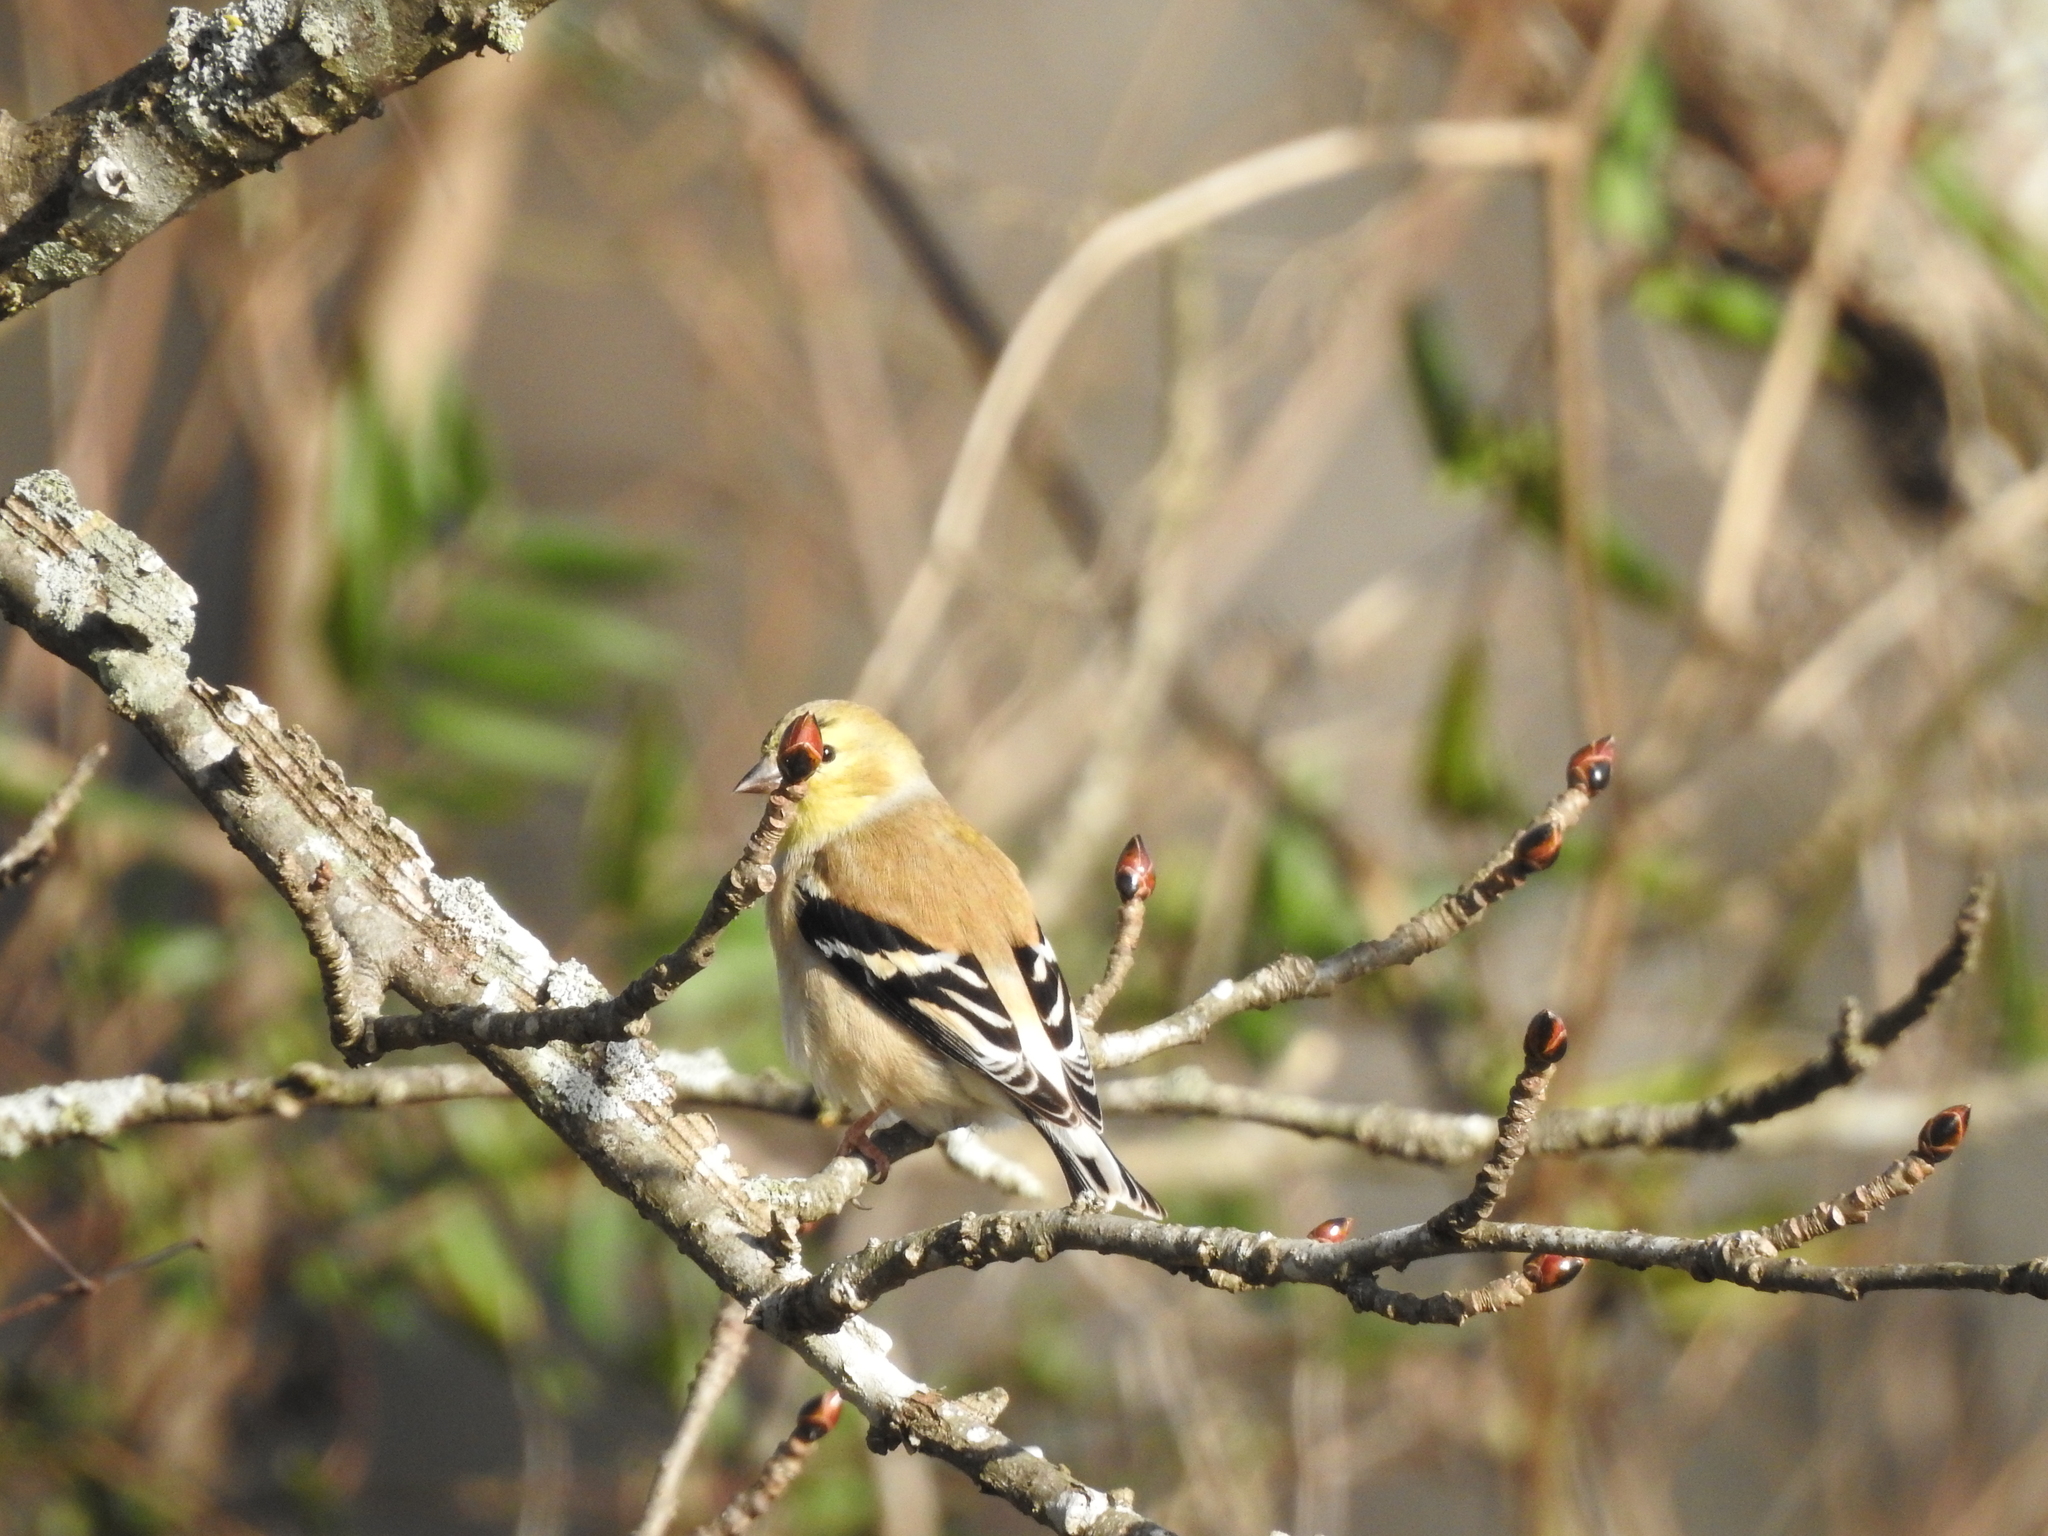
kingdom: Animalia
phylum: Chordata
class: Aves
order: Passeriformes
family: Fringillidae
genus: Spinus
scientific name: Spinus tristis
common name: American goldfinch
